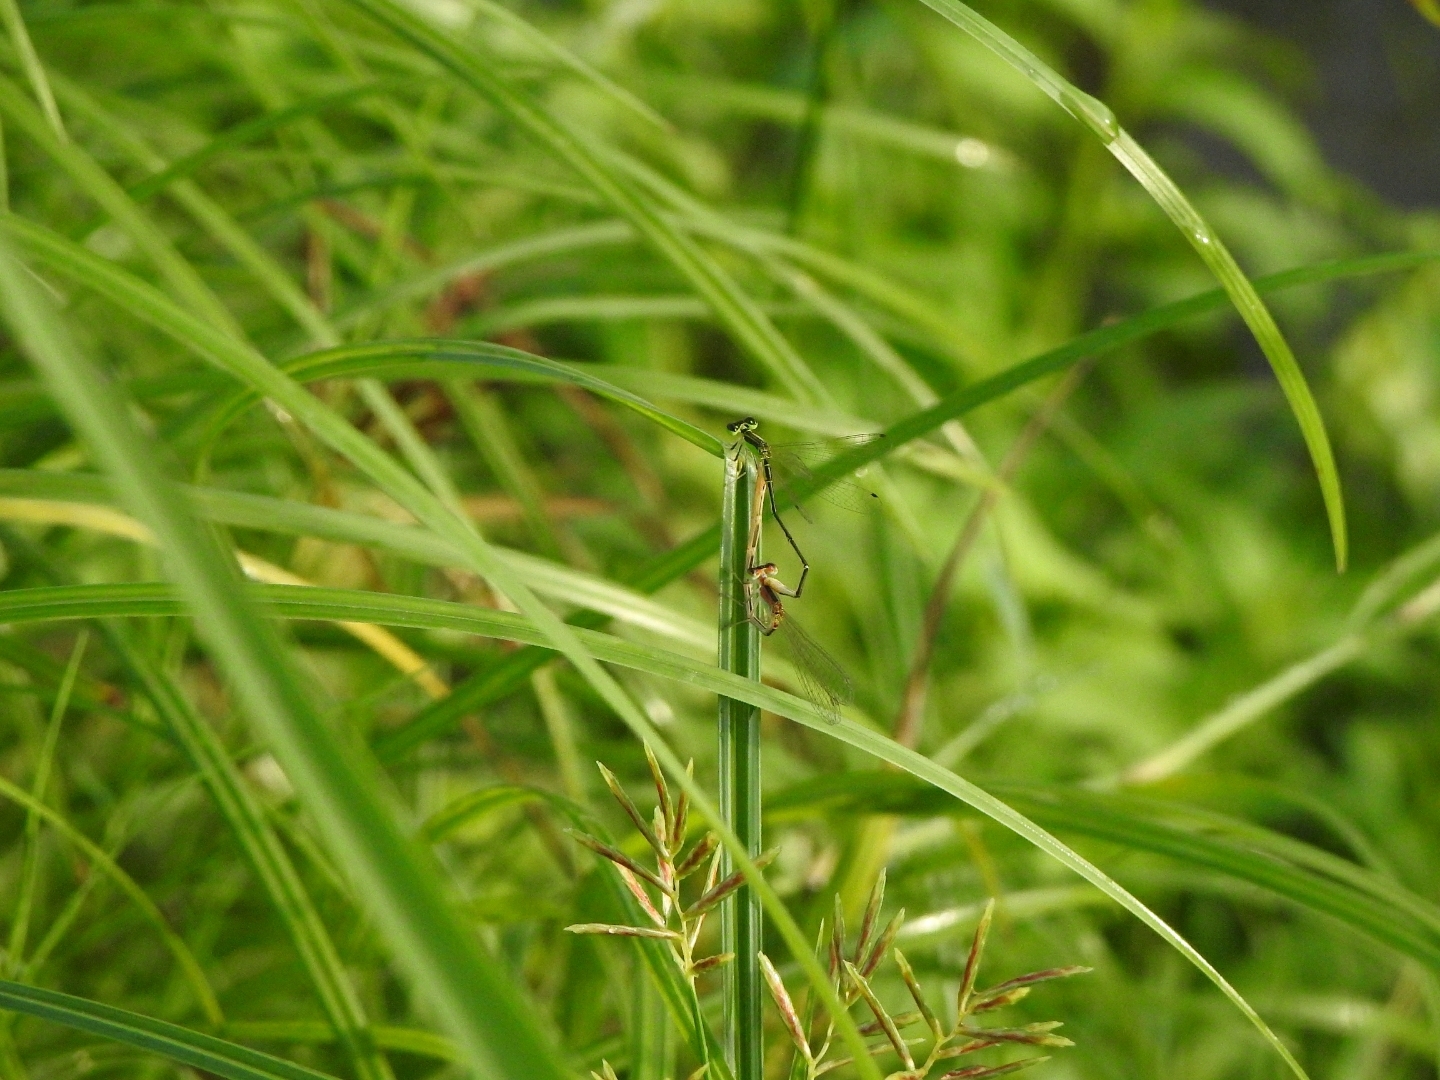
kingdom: Animalia
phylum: Arthropoda
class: Insecta
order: Odonata
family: Coenagrionidae
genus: Agriocnemis
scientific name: Agriocnemis pygmaea
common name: Pygmy wisp
